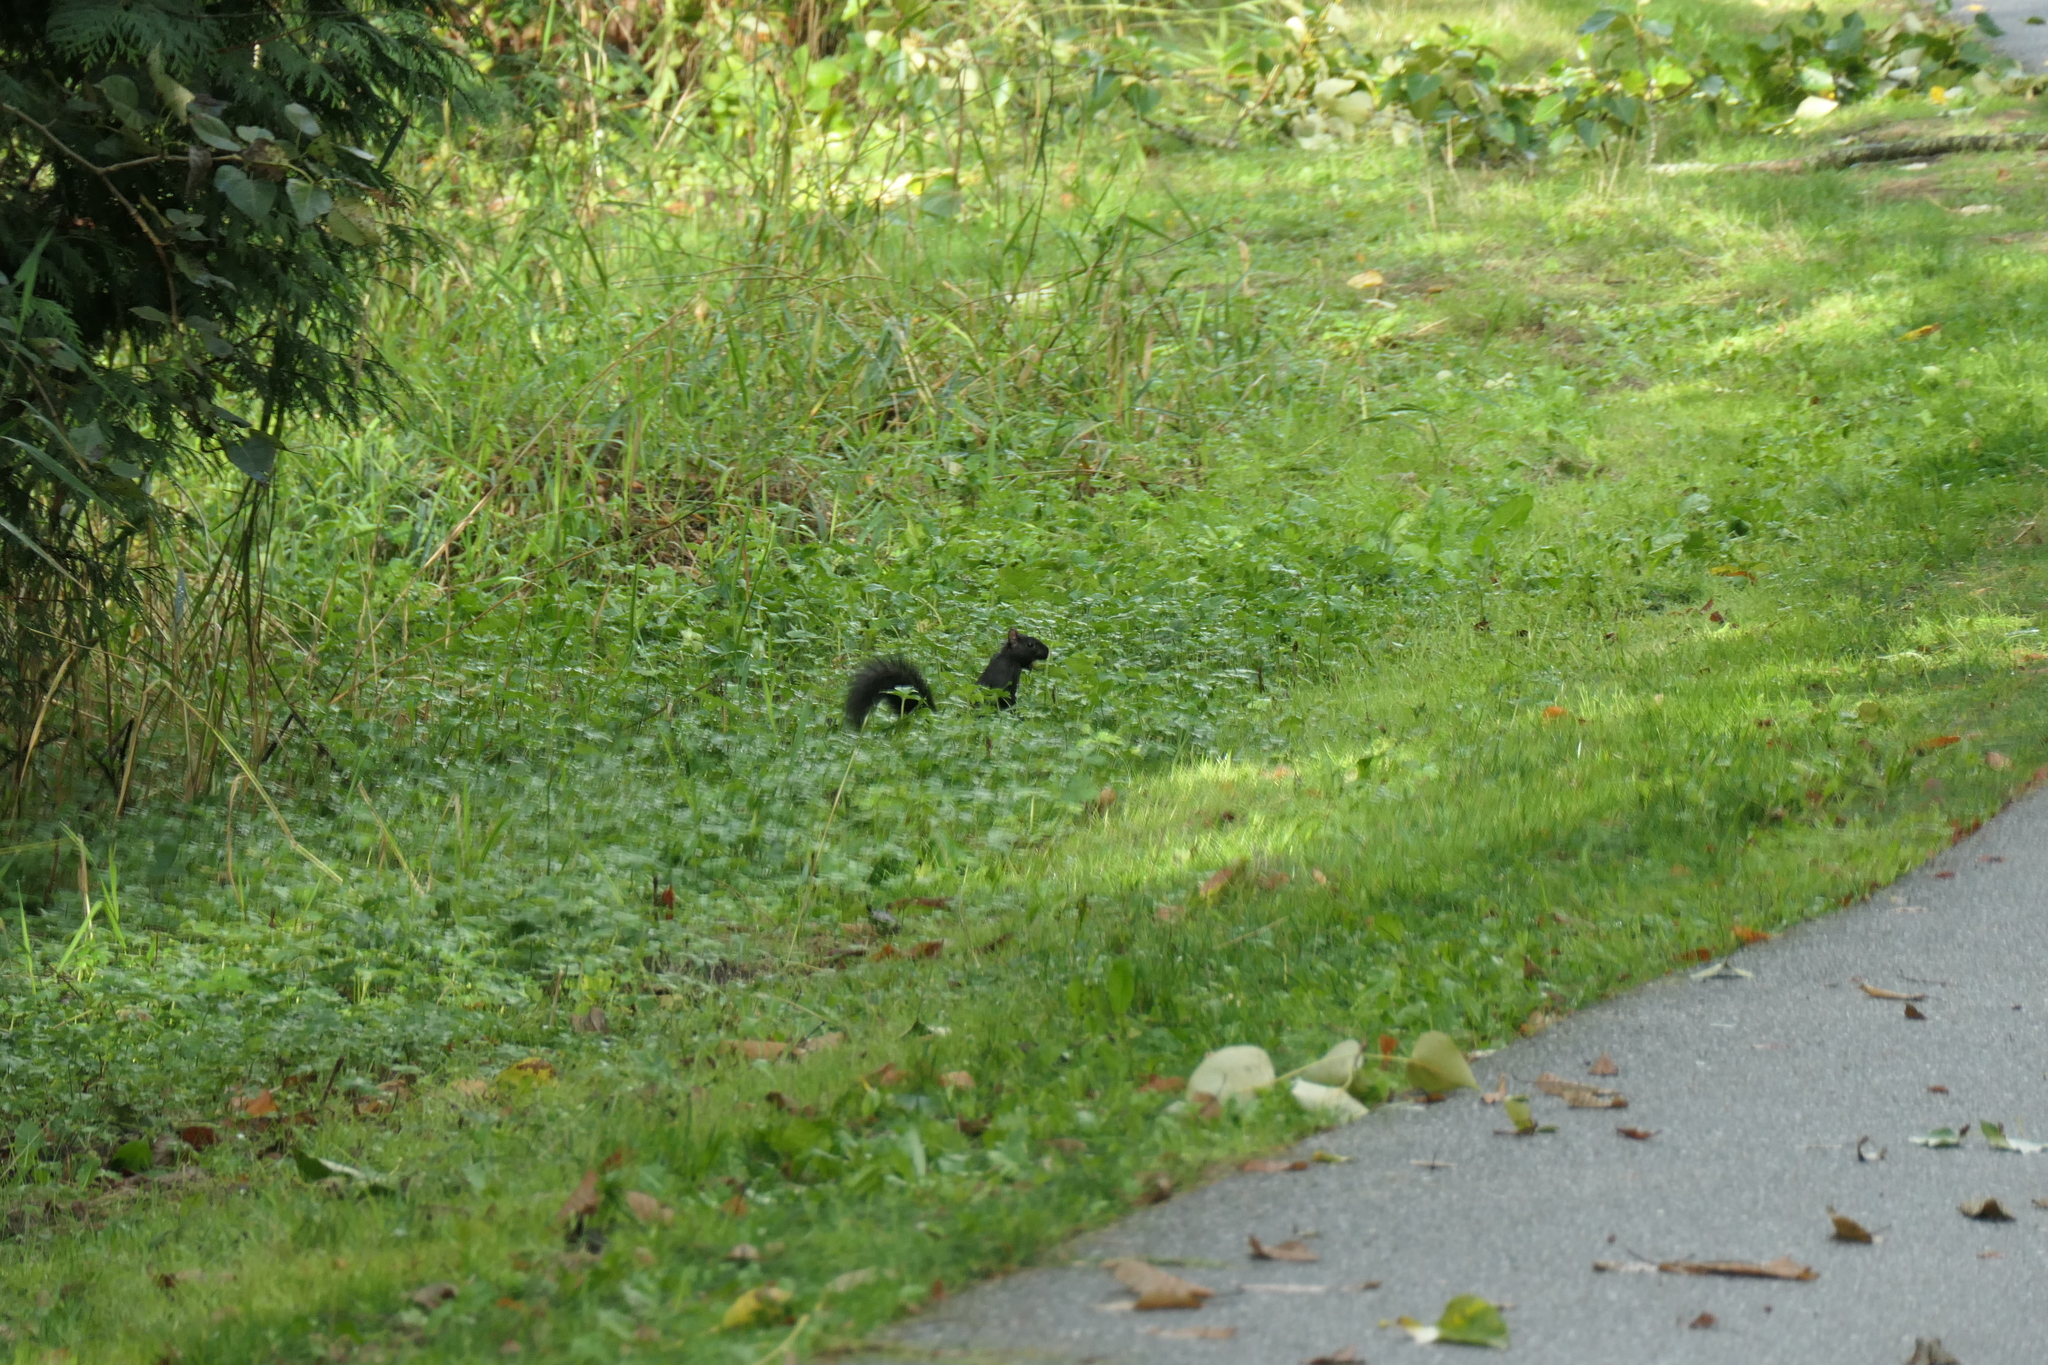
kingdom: Animalia
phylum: Chordata
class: Mammalia
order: Rodentia
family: Sciuridae
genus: Sciurus
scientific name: Sciurus carolinensis
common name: Eastern gray squirrel
